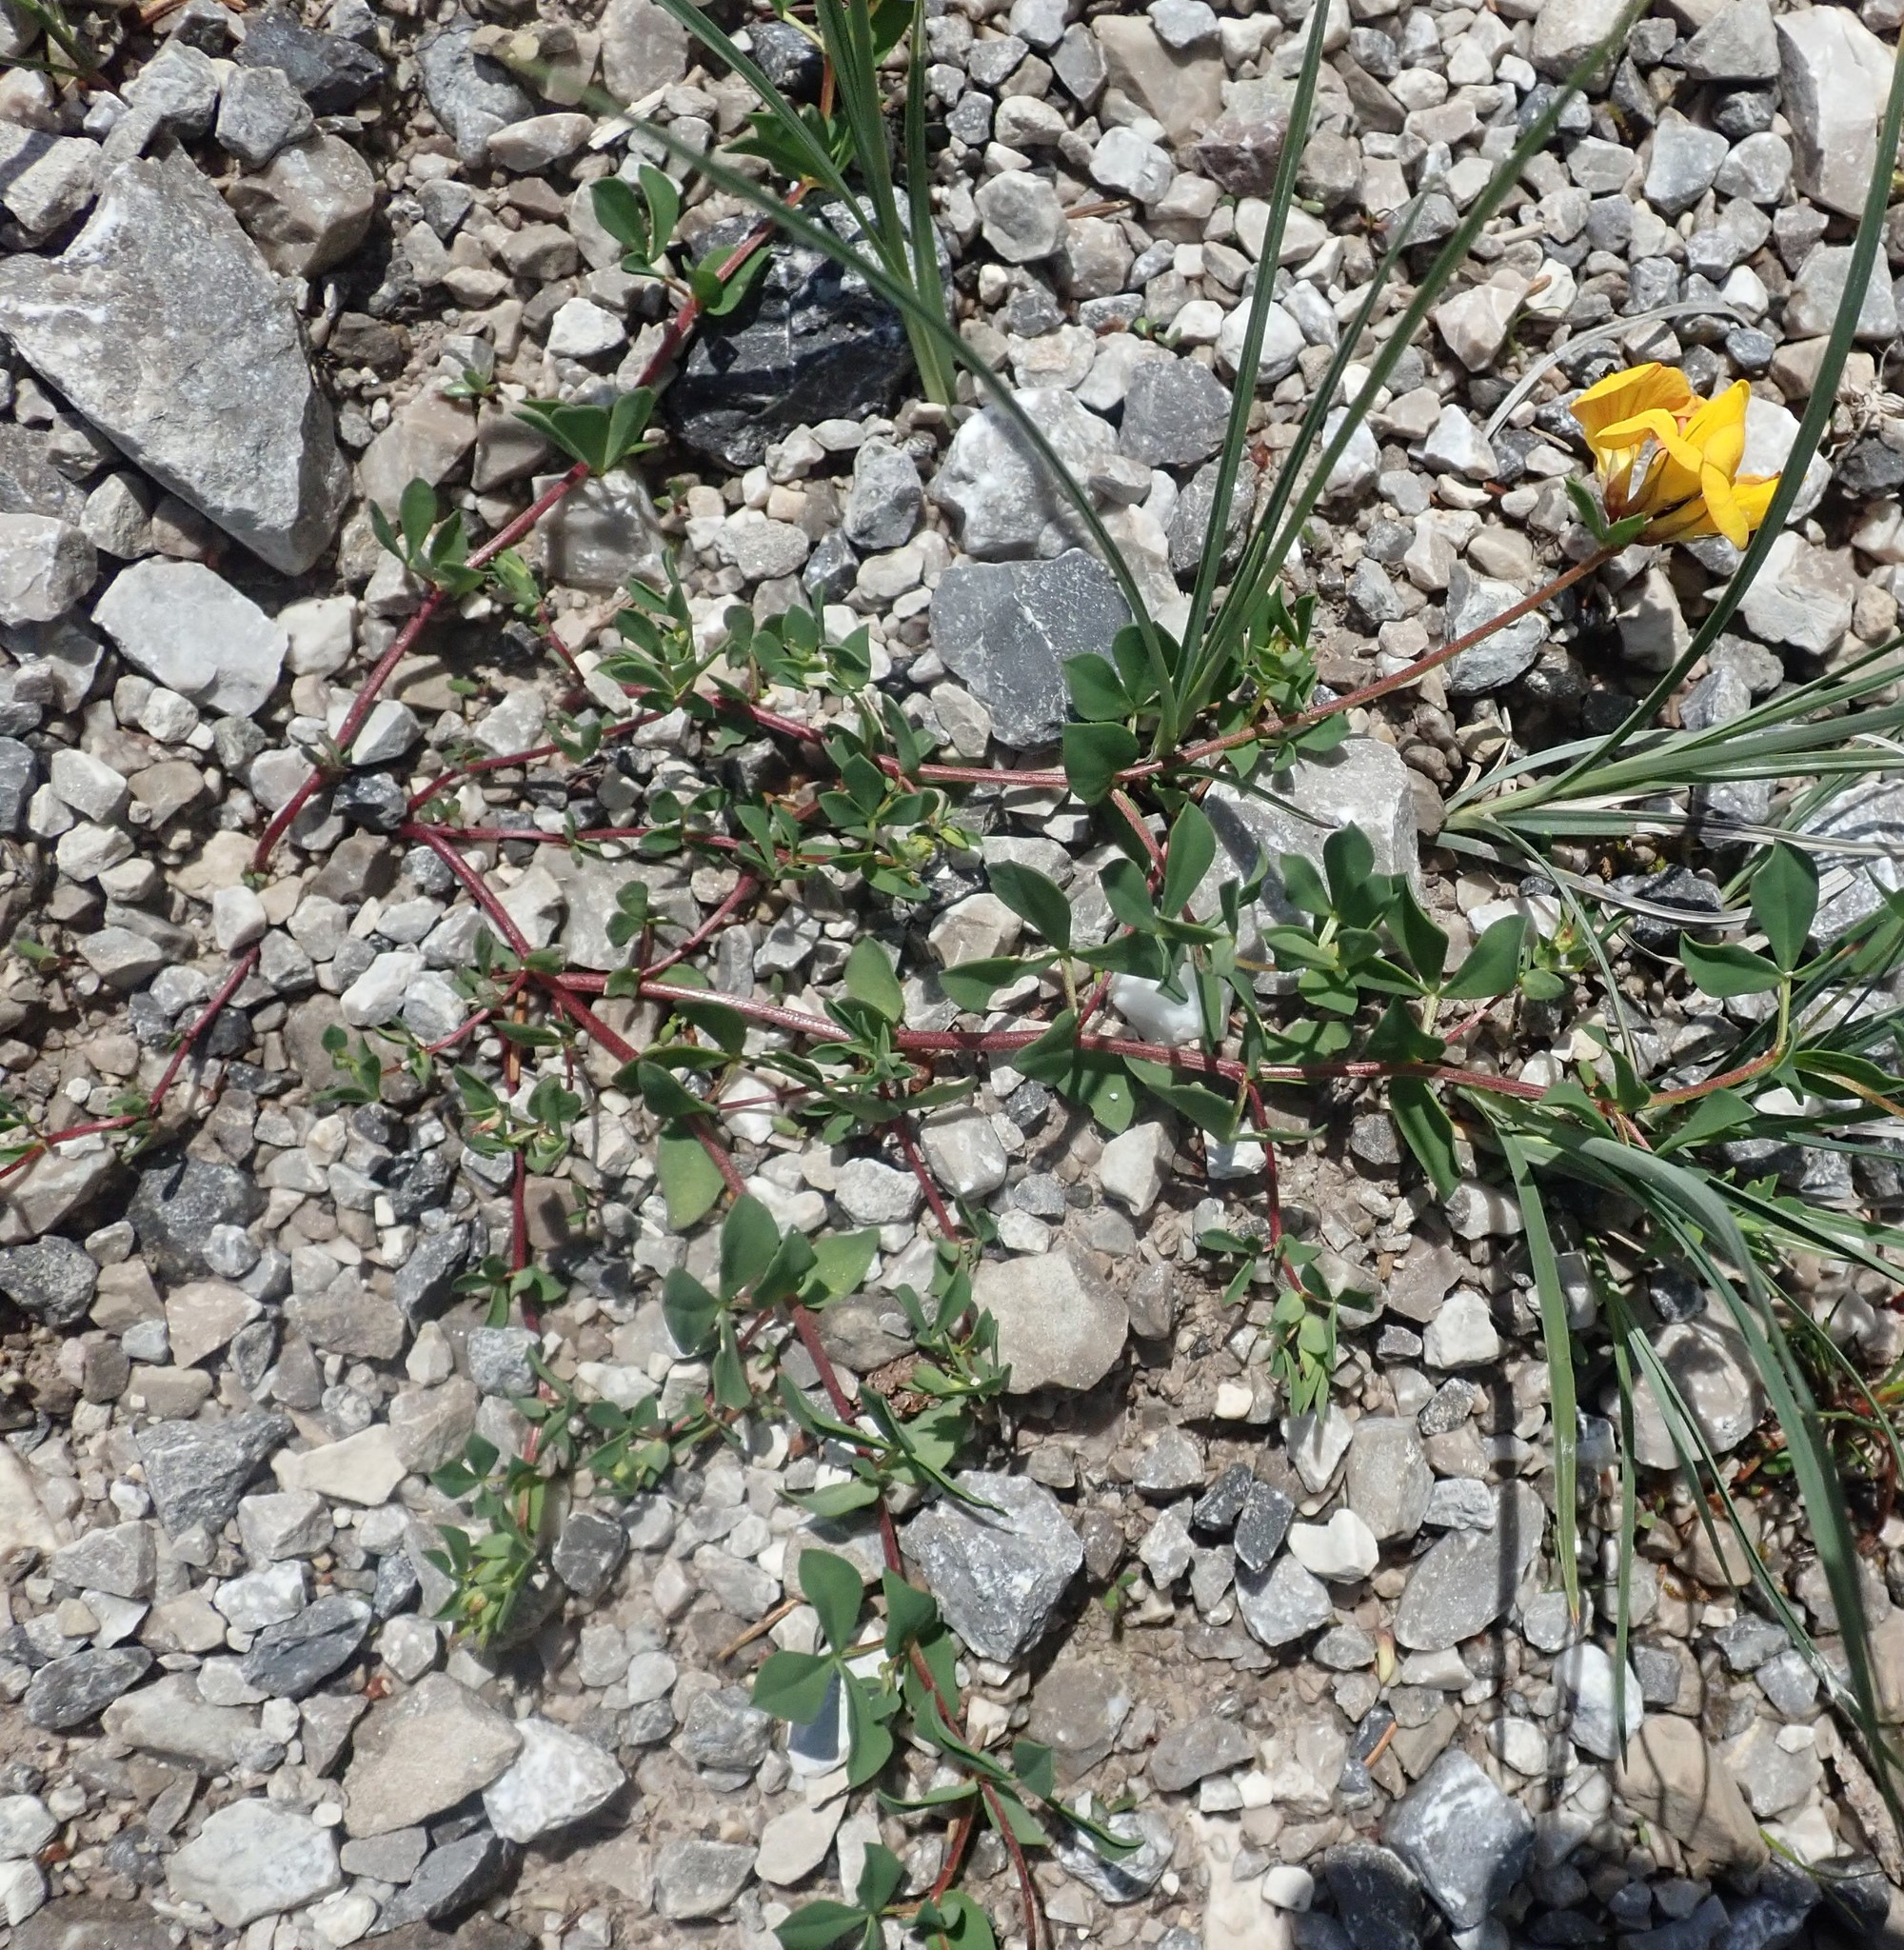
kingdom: Plantae
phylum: Tracheophyta
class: Magnoliopsida
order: Fabales
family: Fabaceae
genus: Lotus
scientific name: Lotus corniculatus
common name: Common bird's-foot-trefoil
